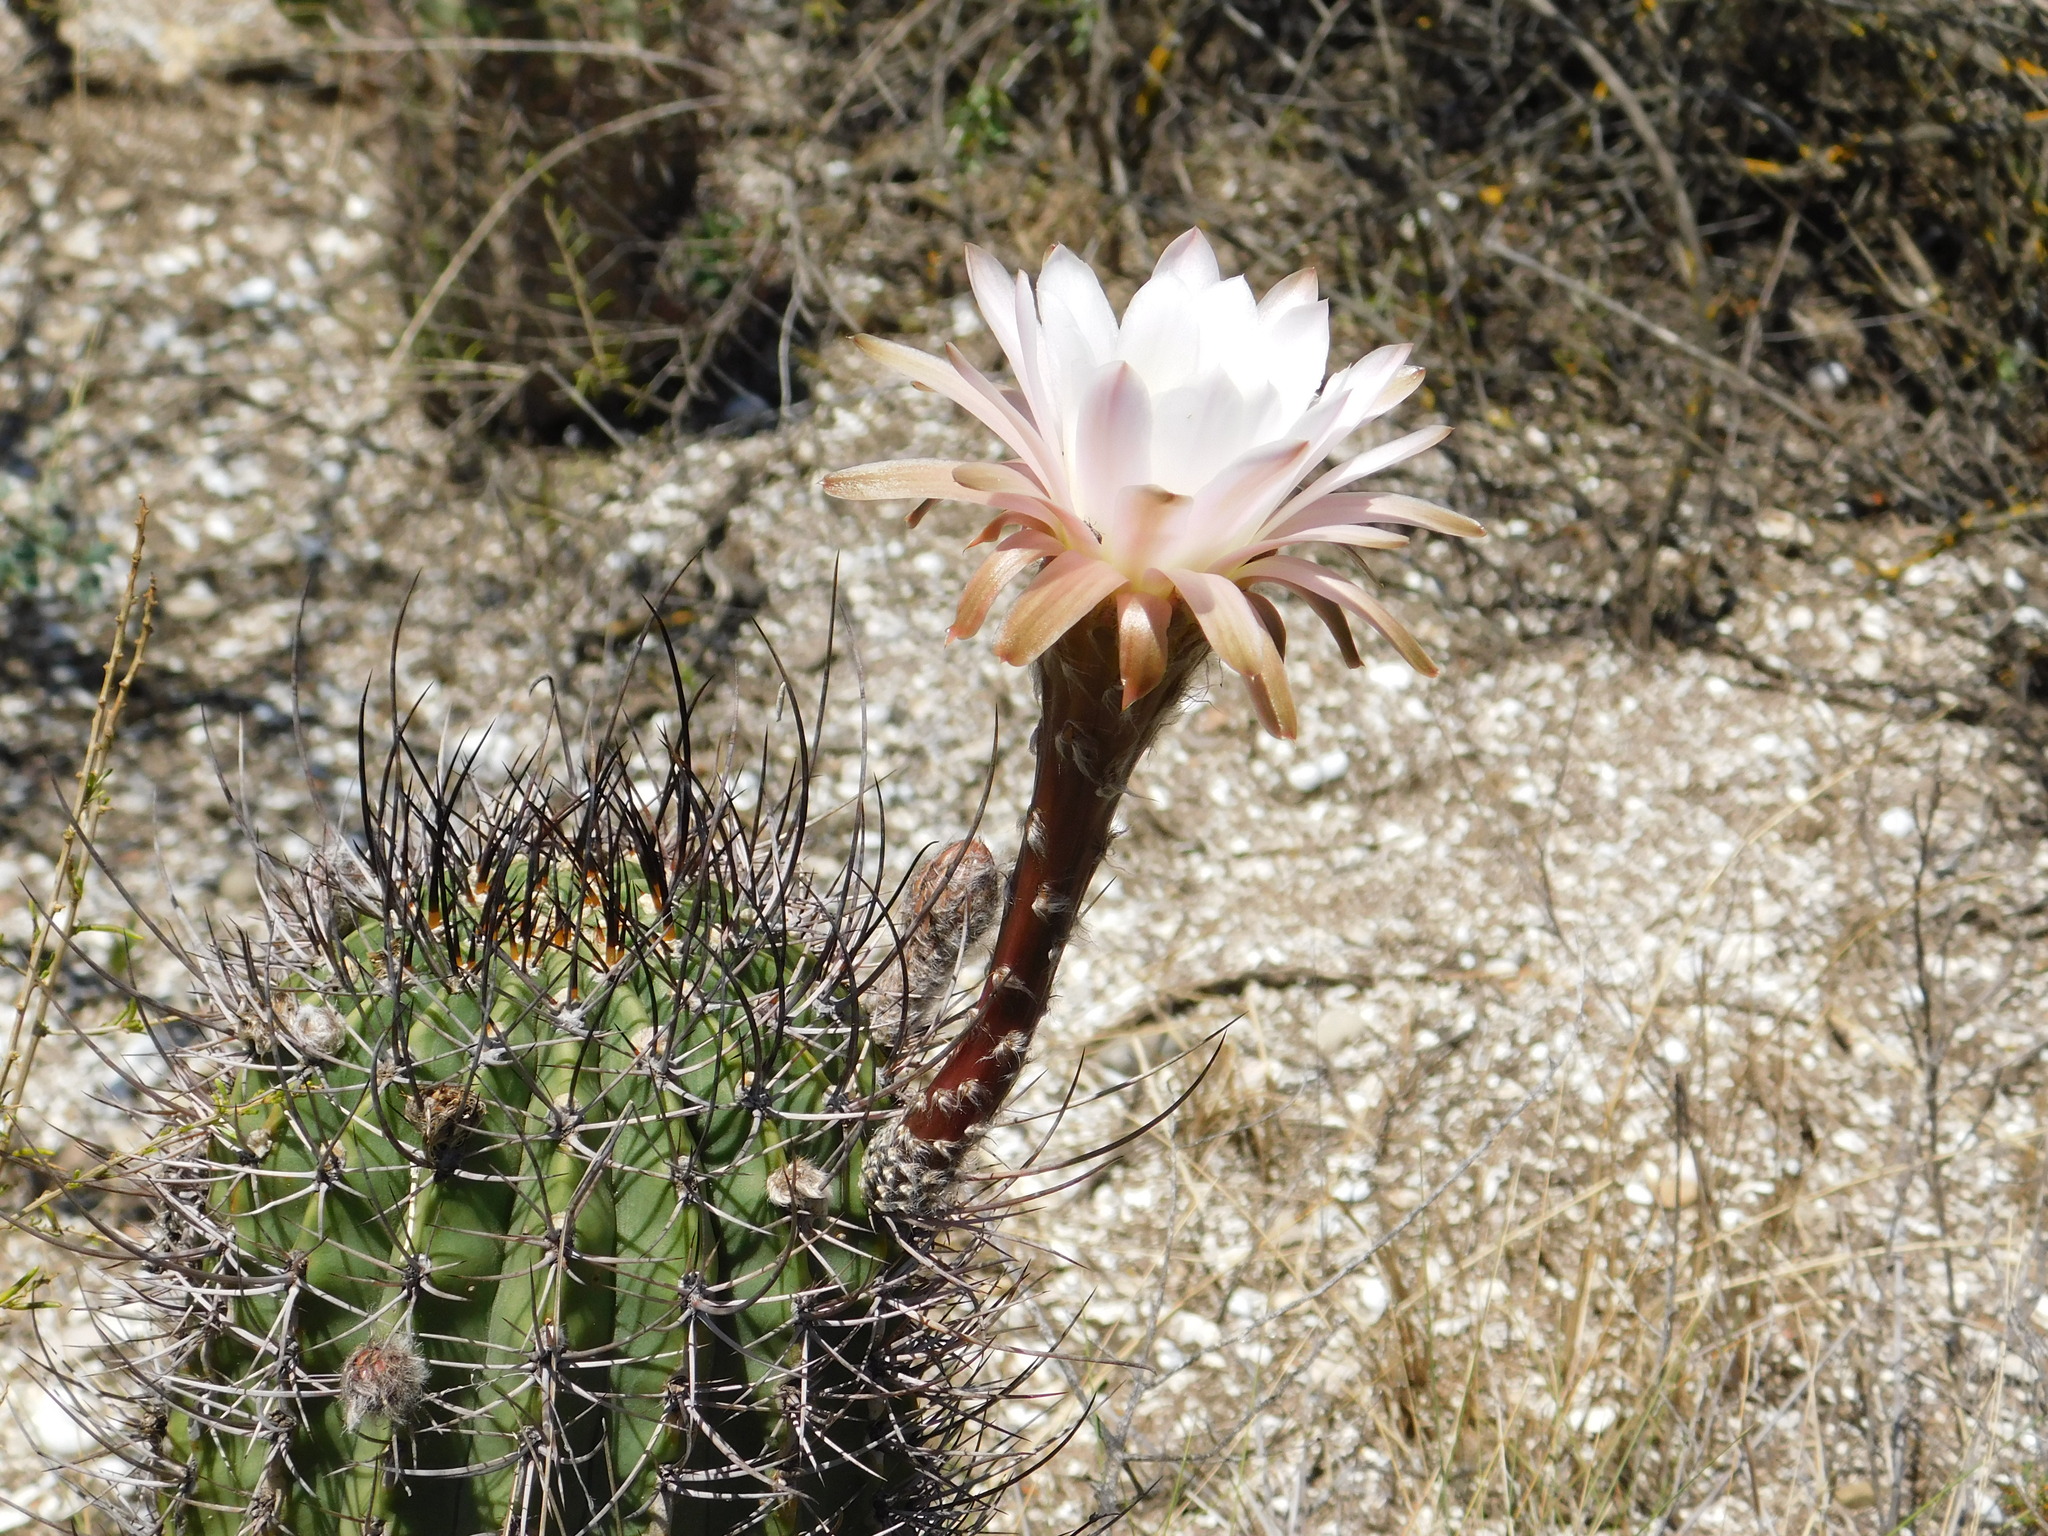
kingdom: Plantae
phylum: Tracheophyta
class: Magnoliopsida
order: Caryophyllales
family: Cactaceae
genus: Acanthocalycium
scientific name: Acanthocalycium leucanthum
